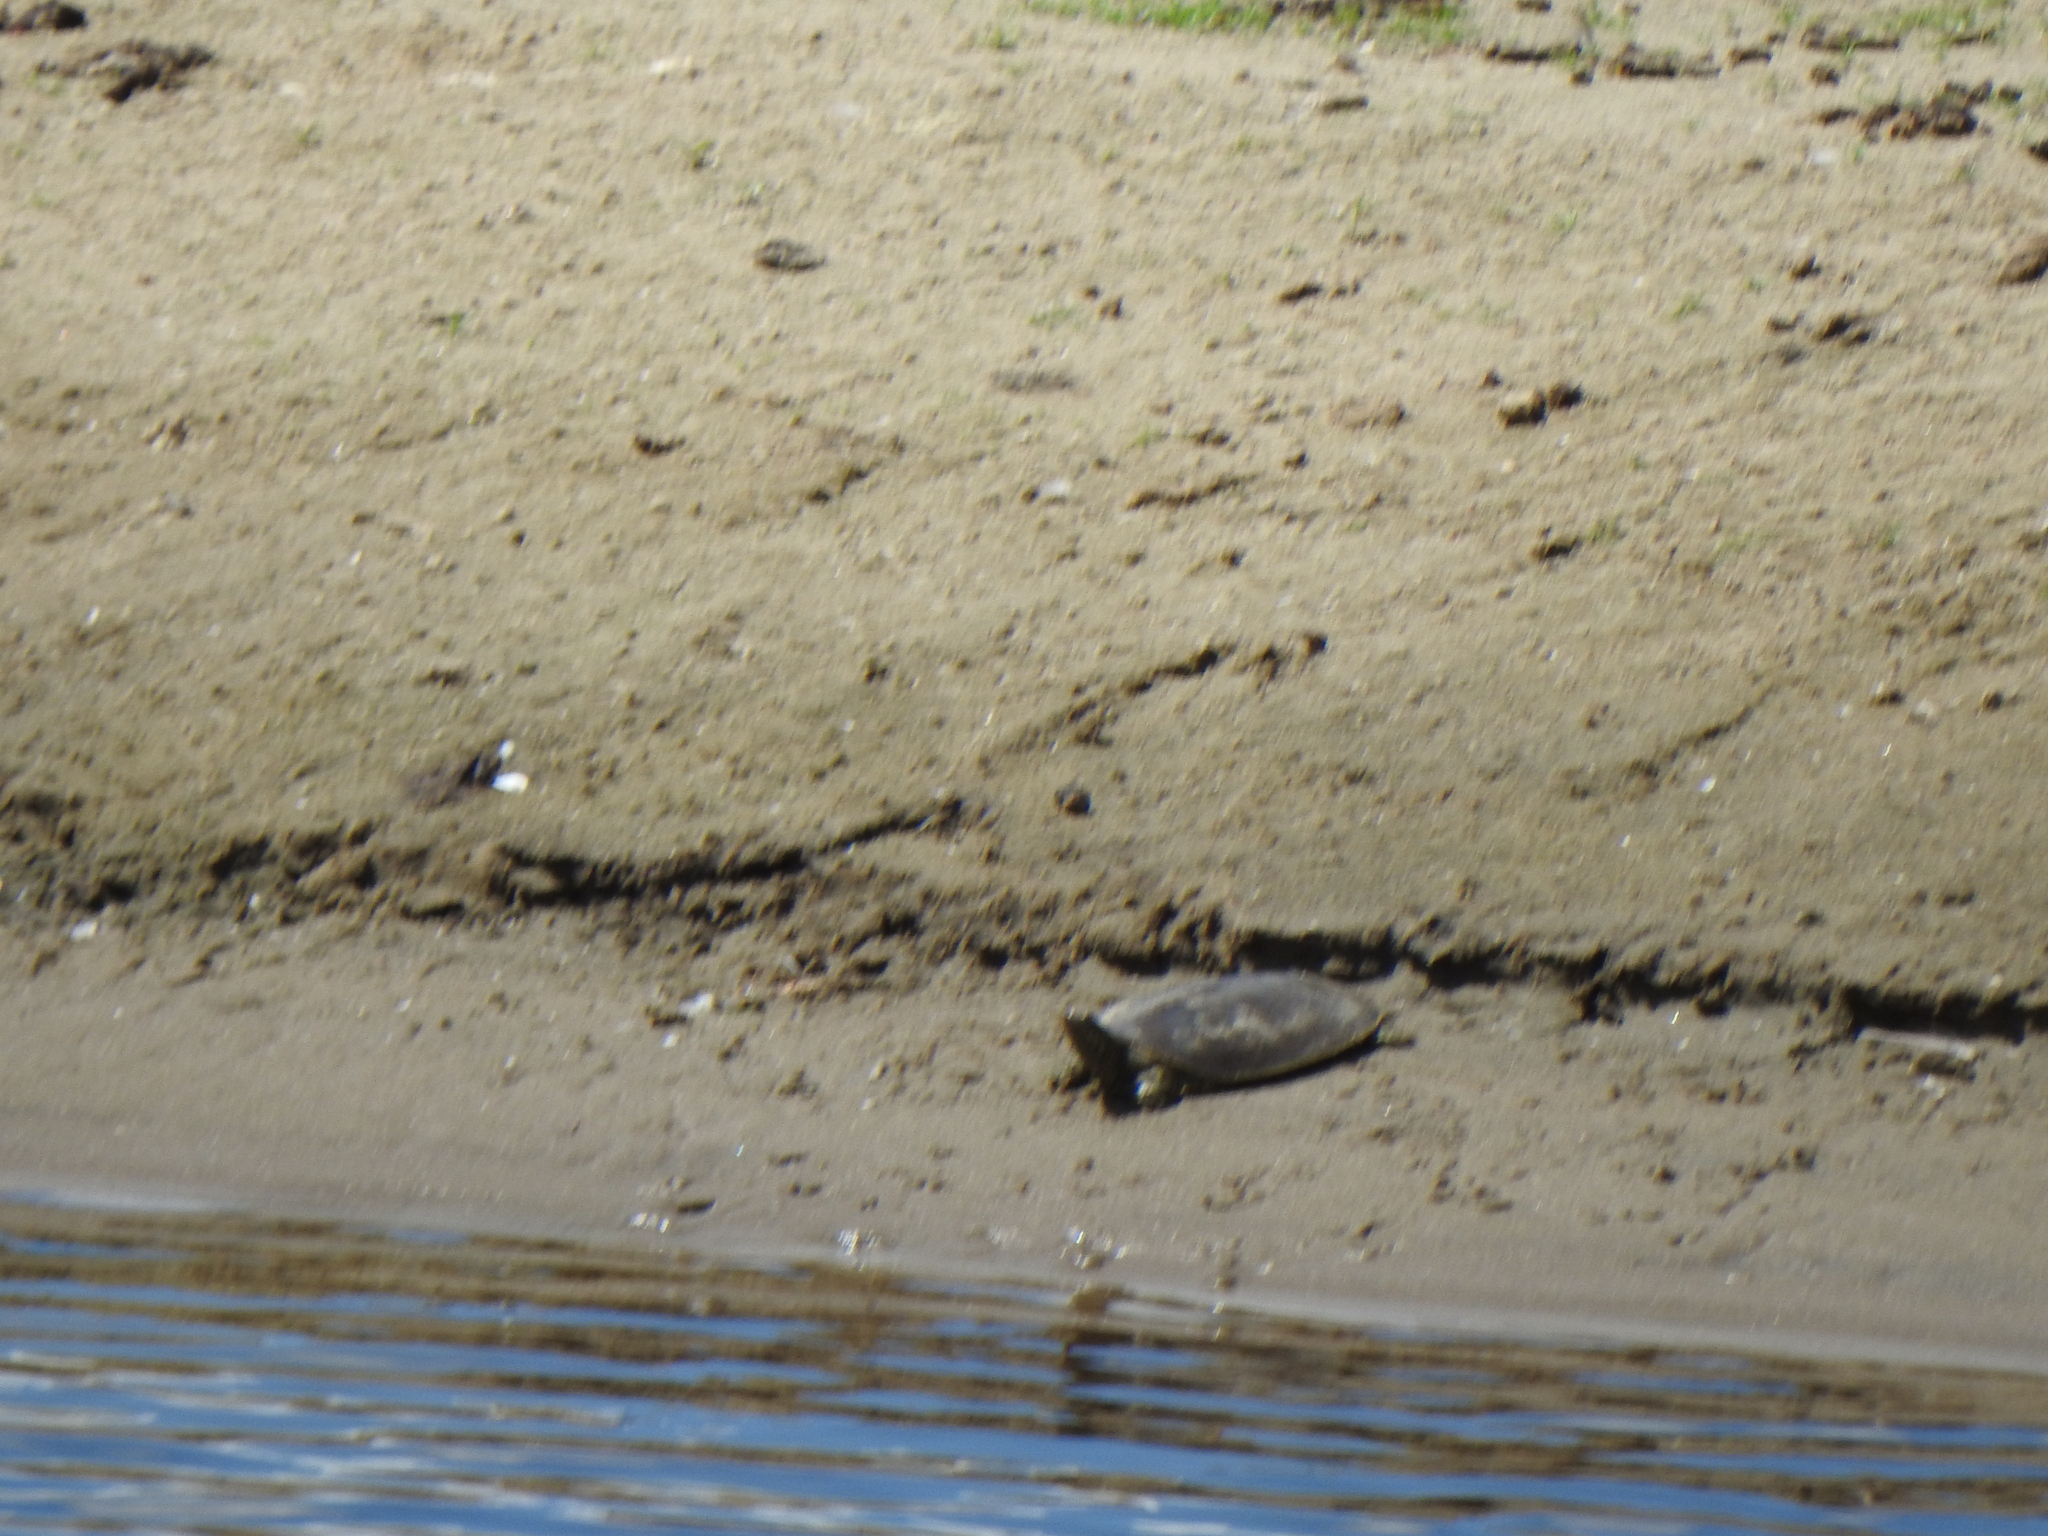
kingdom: Animalia
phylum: Chordata
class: Testudines
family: Trionychidae
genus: Apalone
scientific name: Apalone spinifera
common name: Spiny softshell turtle
